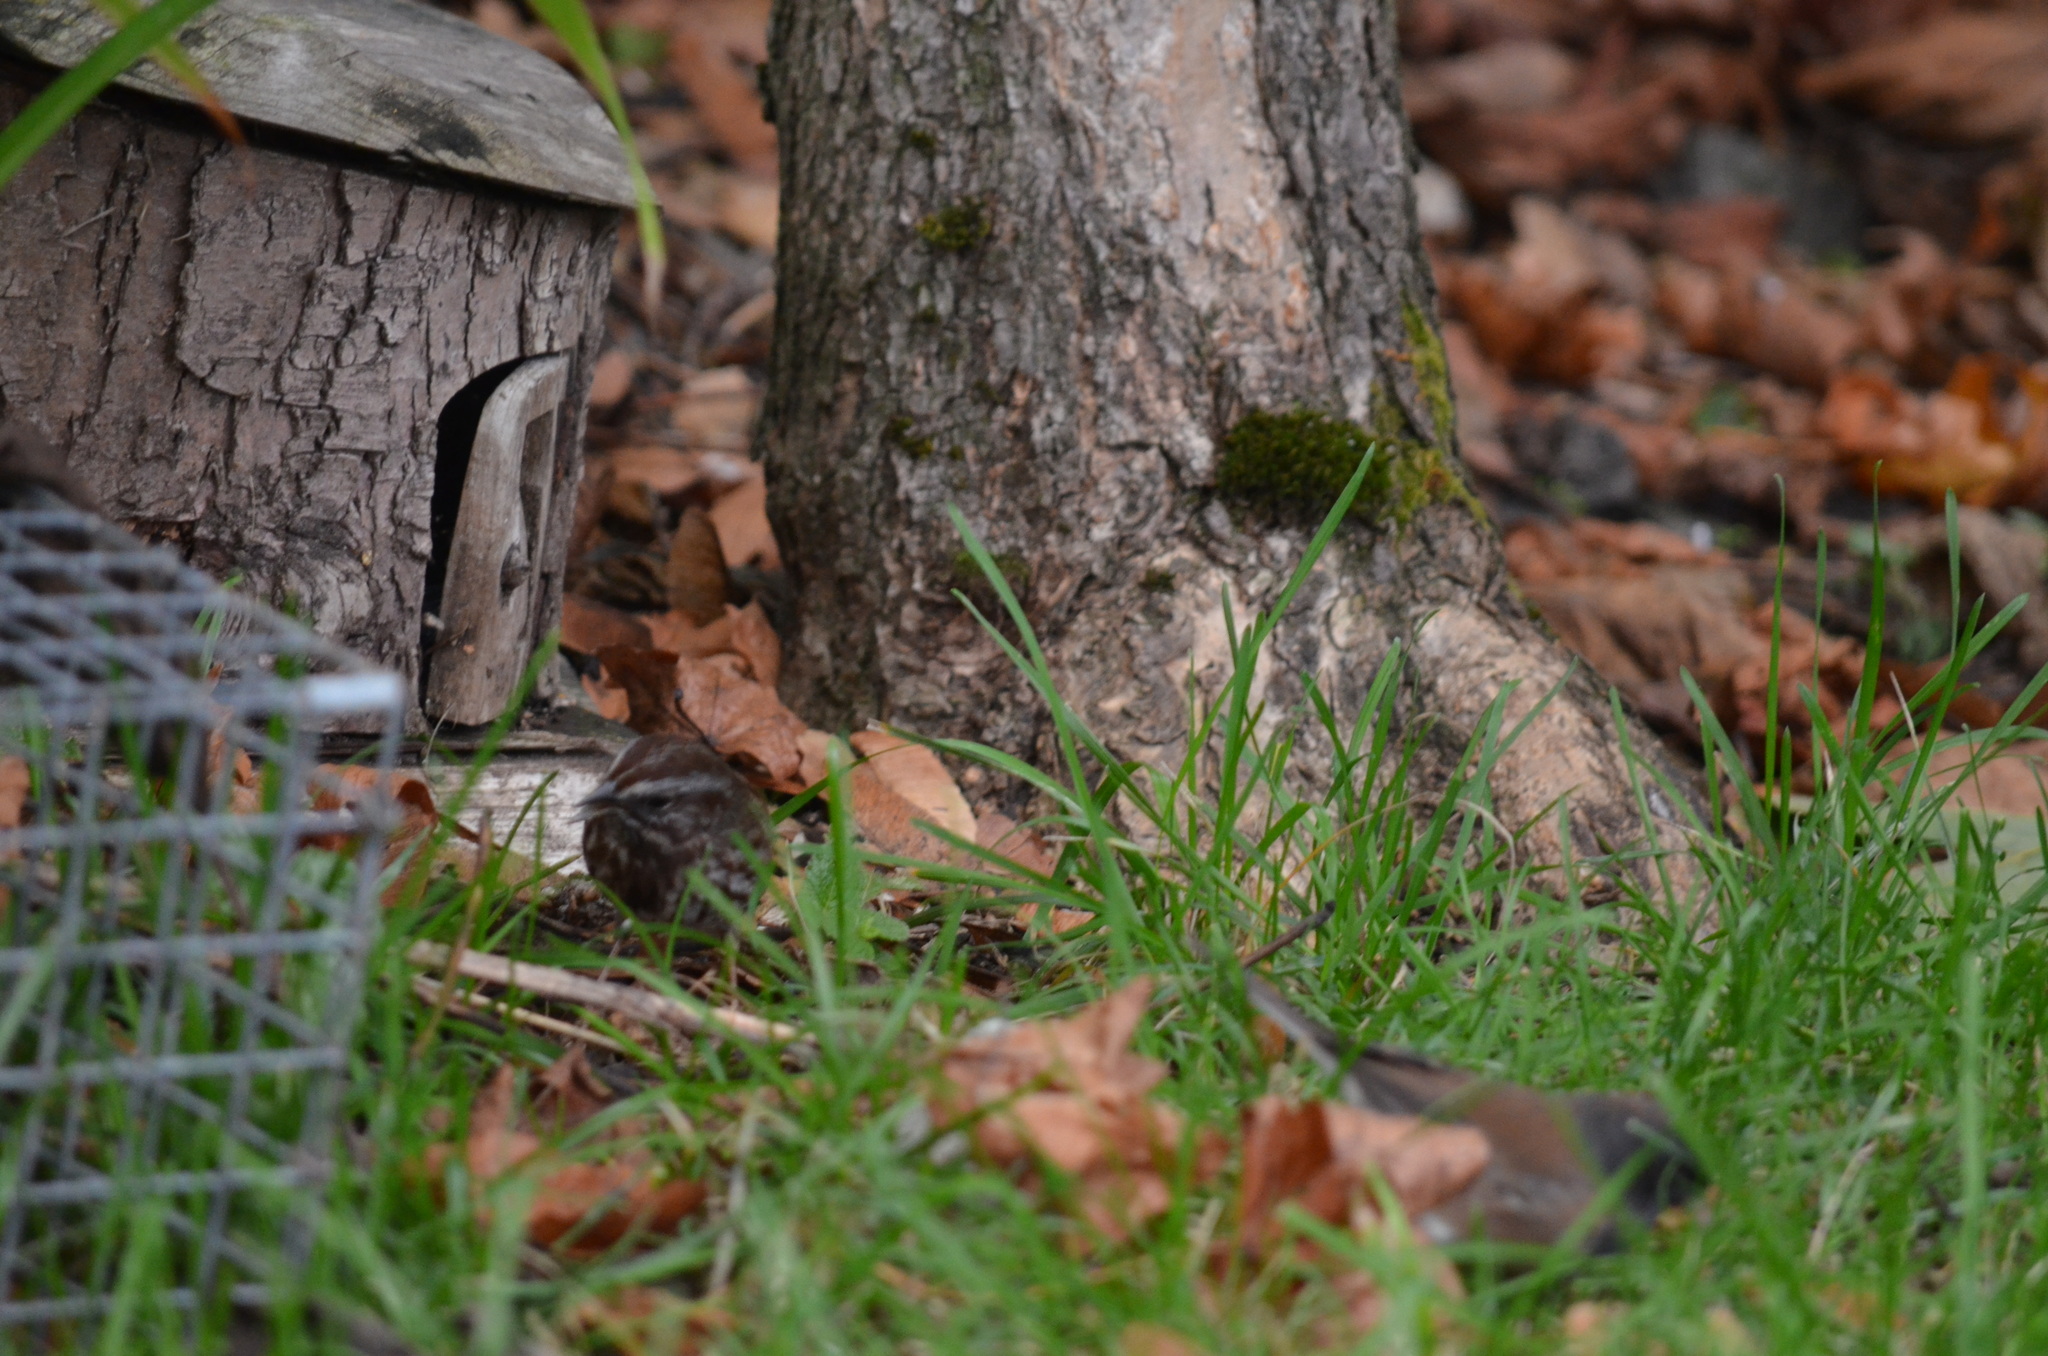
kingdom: Animalia
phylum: Chordata
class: Aves
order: Passeriformes
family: Passerellidae
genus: Melospiza
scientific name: Melospiza melodia
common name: Song sparrow
